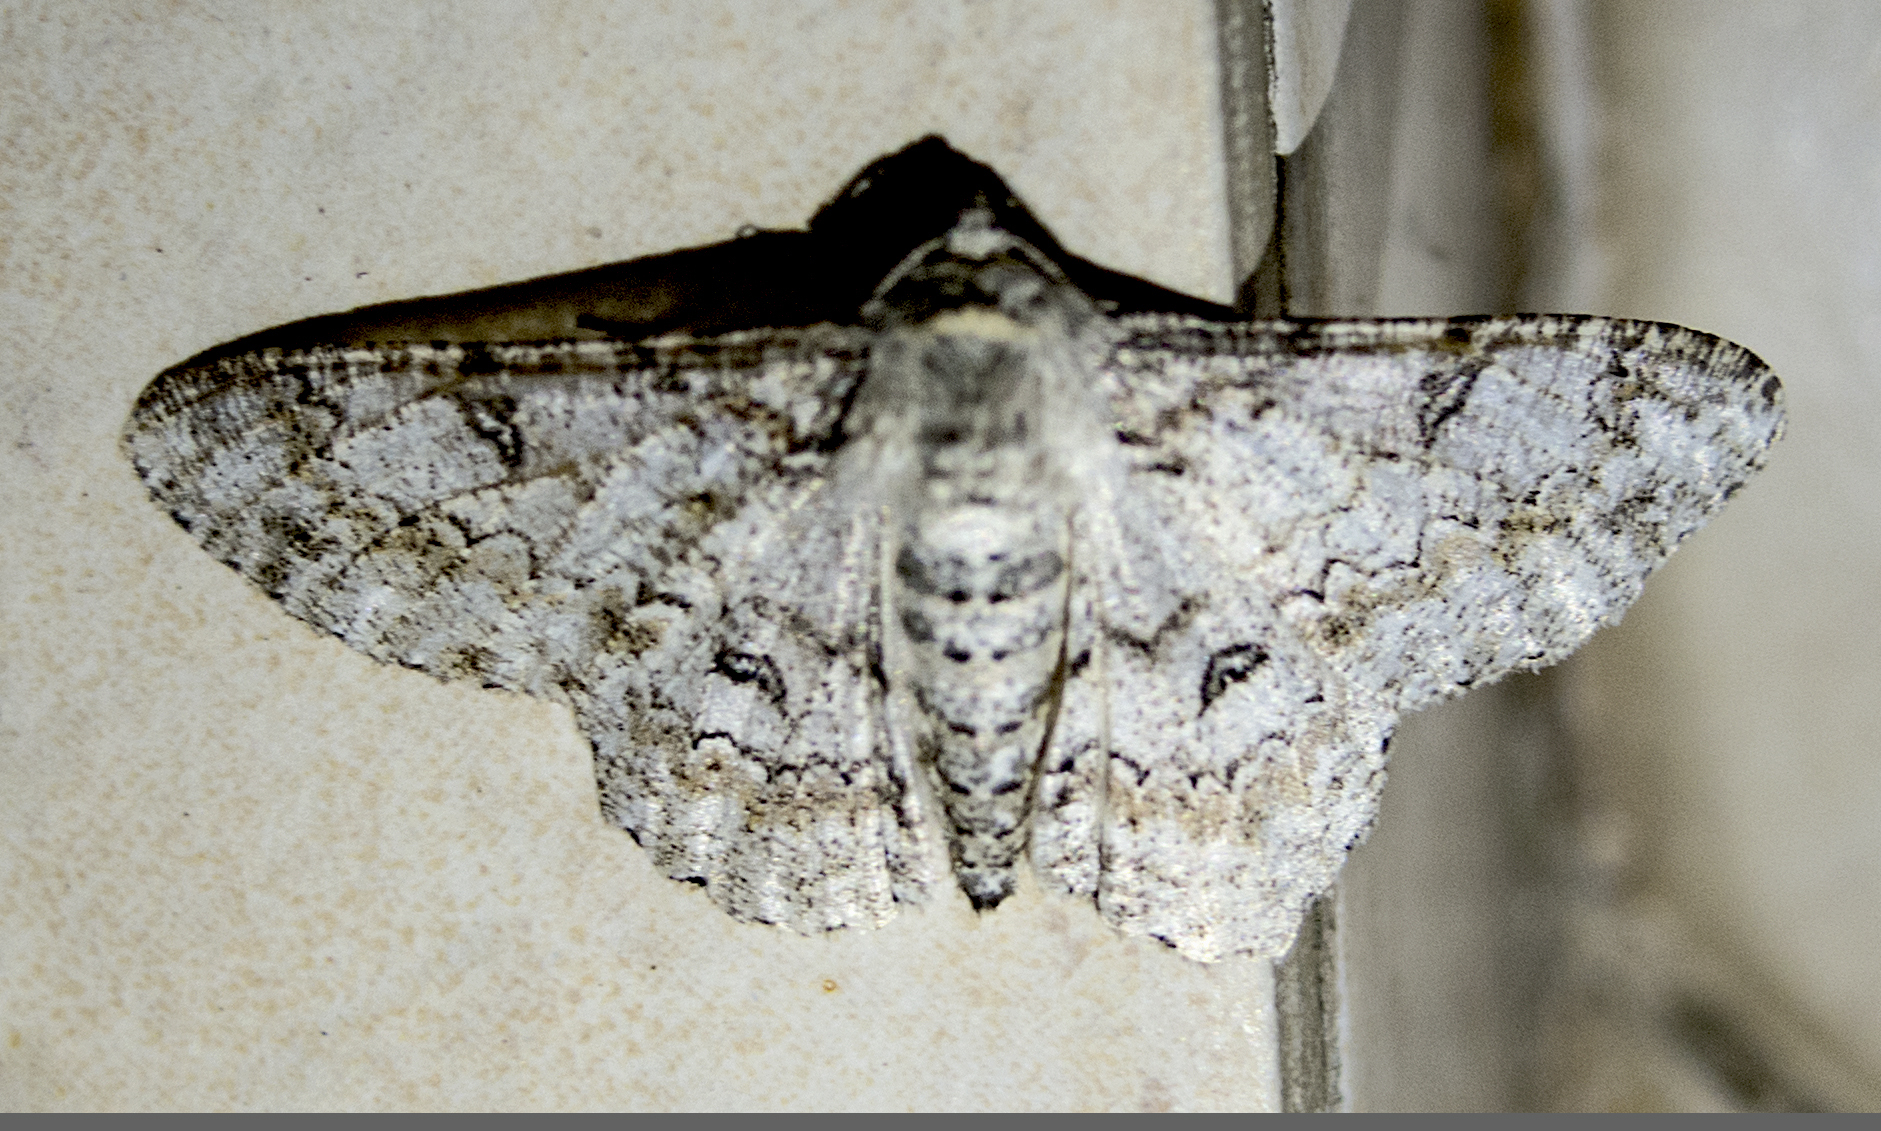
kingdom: Animalia
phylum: Arthropoda
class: Insecta
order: Lepidoptera
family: Geometridae
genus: Ascotis
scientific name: Ascotis selenaria
